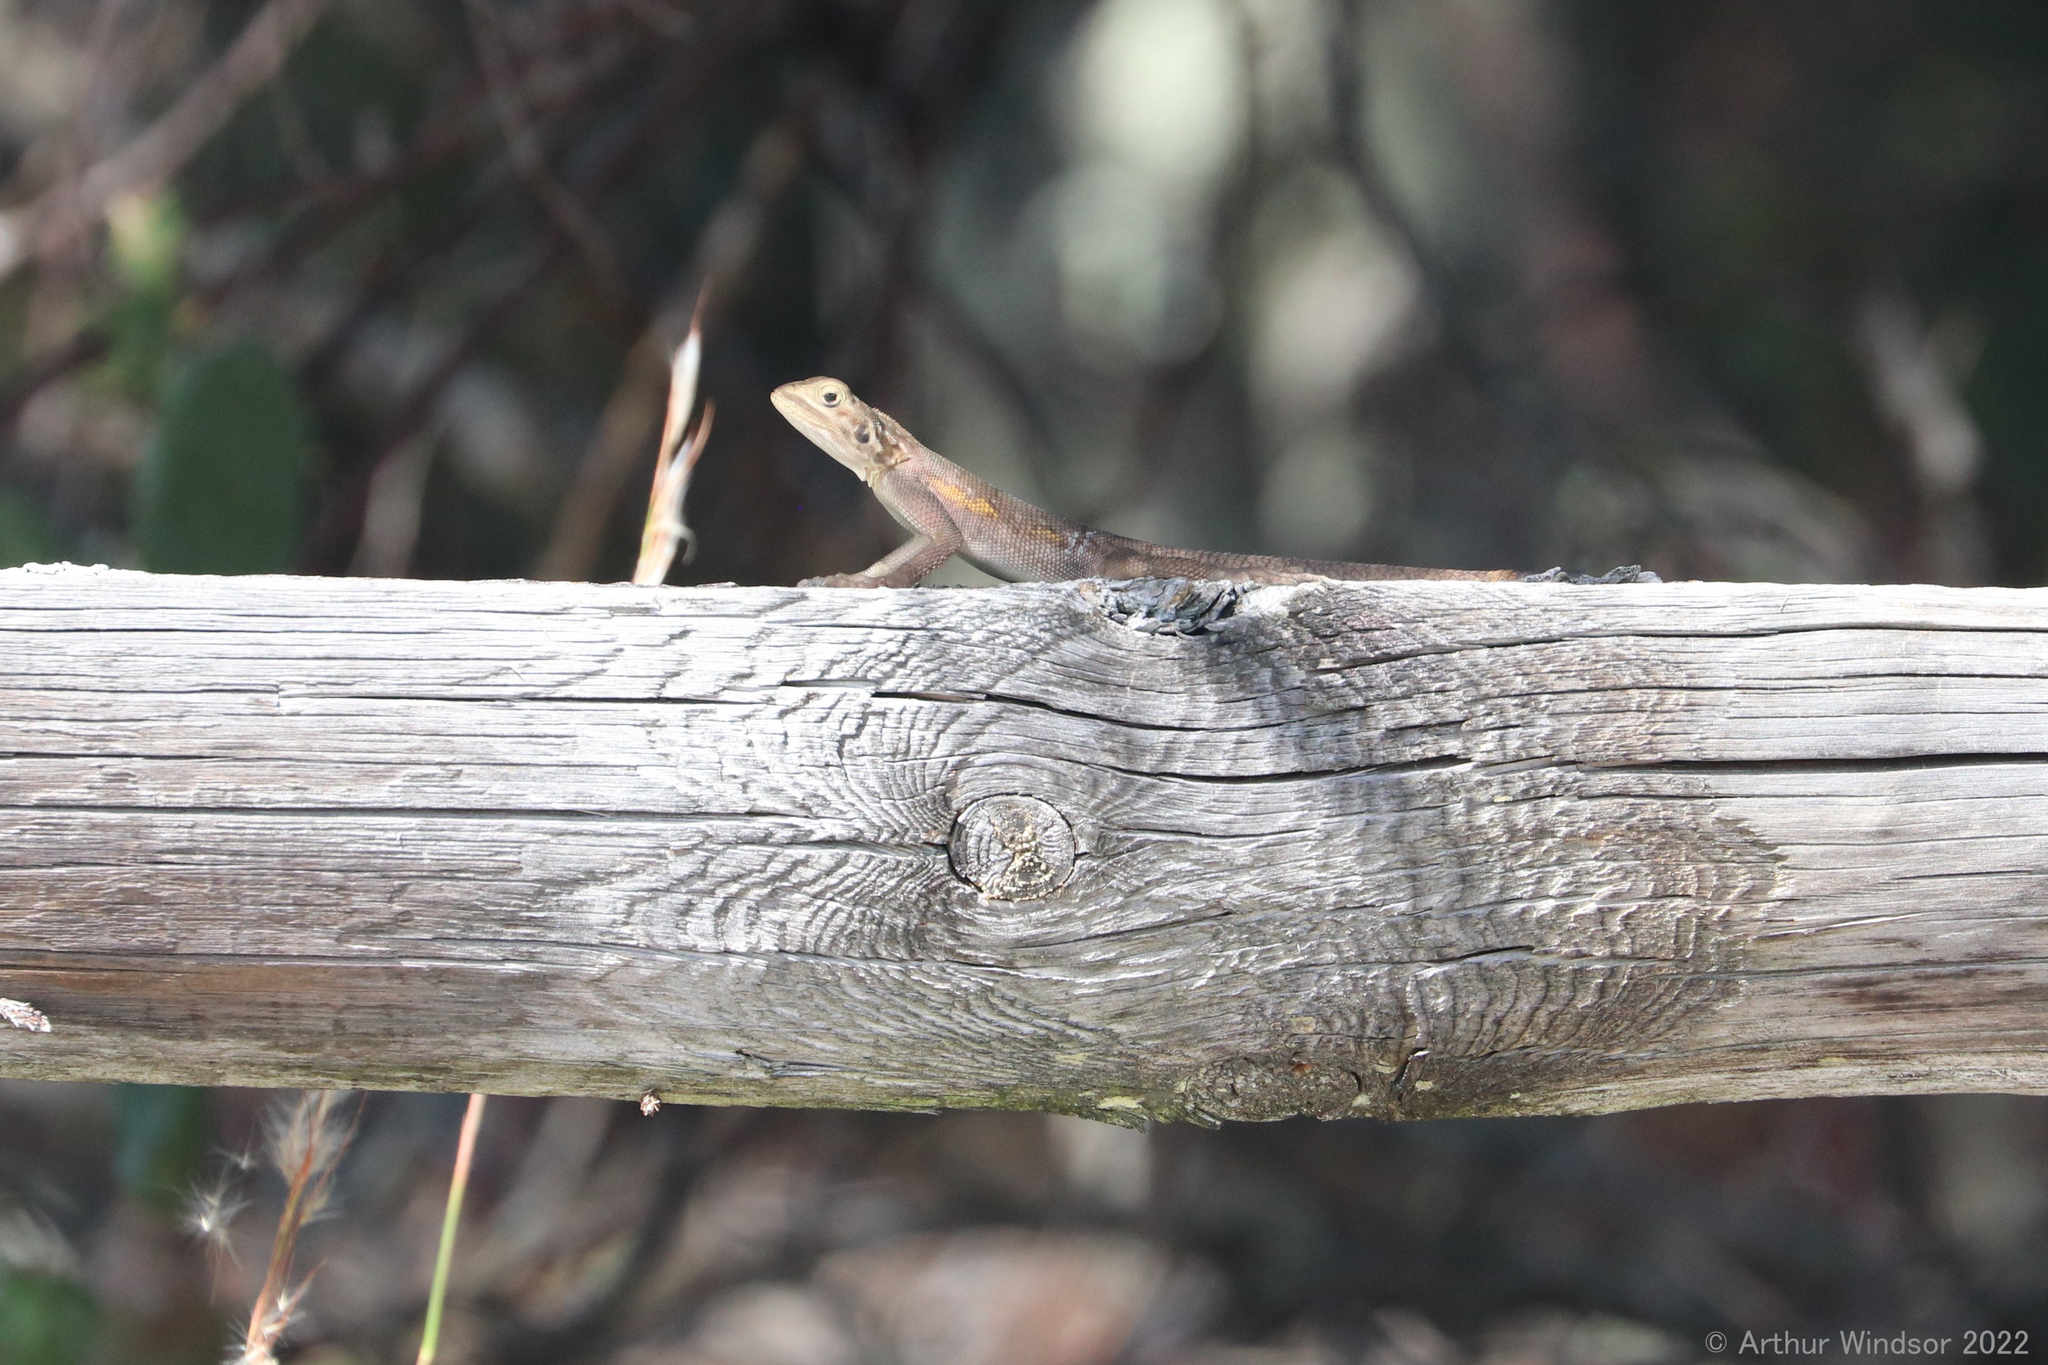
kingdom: Animalia
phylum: Chordata
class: Squamata
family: Agamidae
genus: Agama
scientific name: Agama picticauda
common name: Red-headed agama
